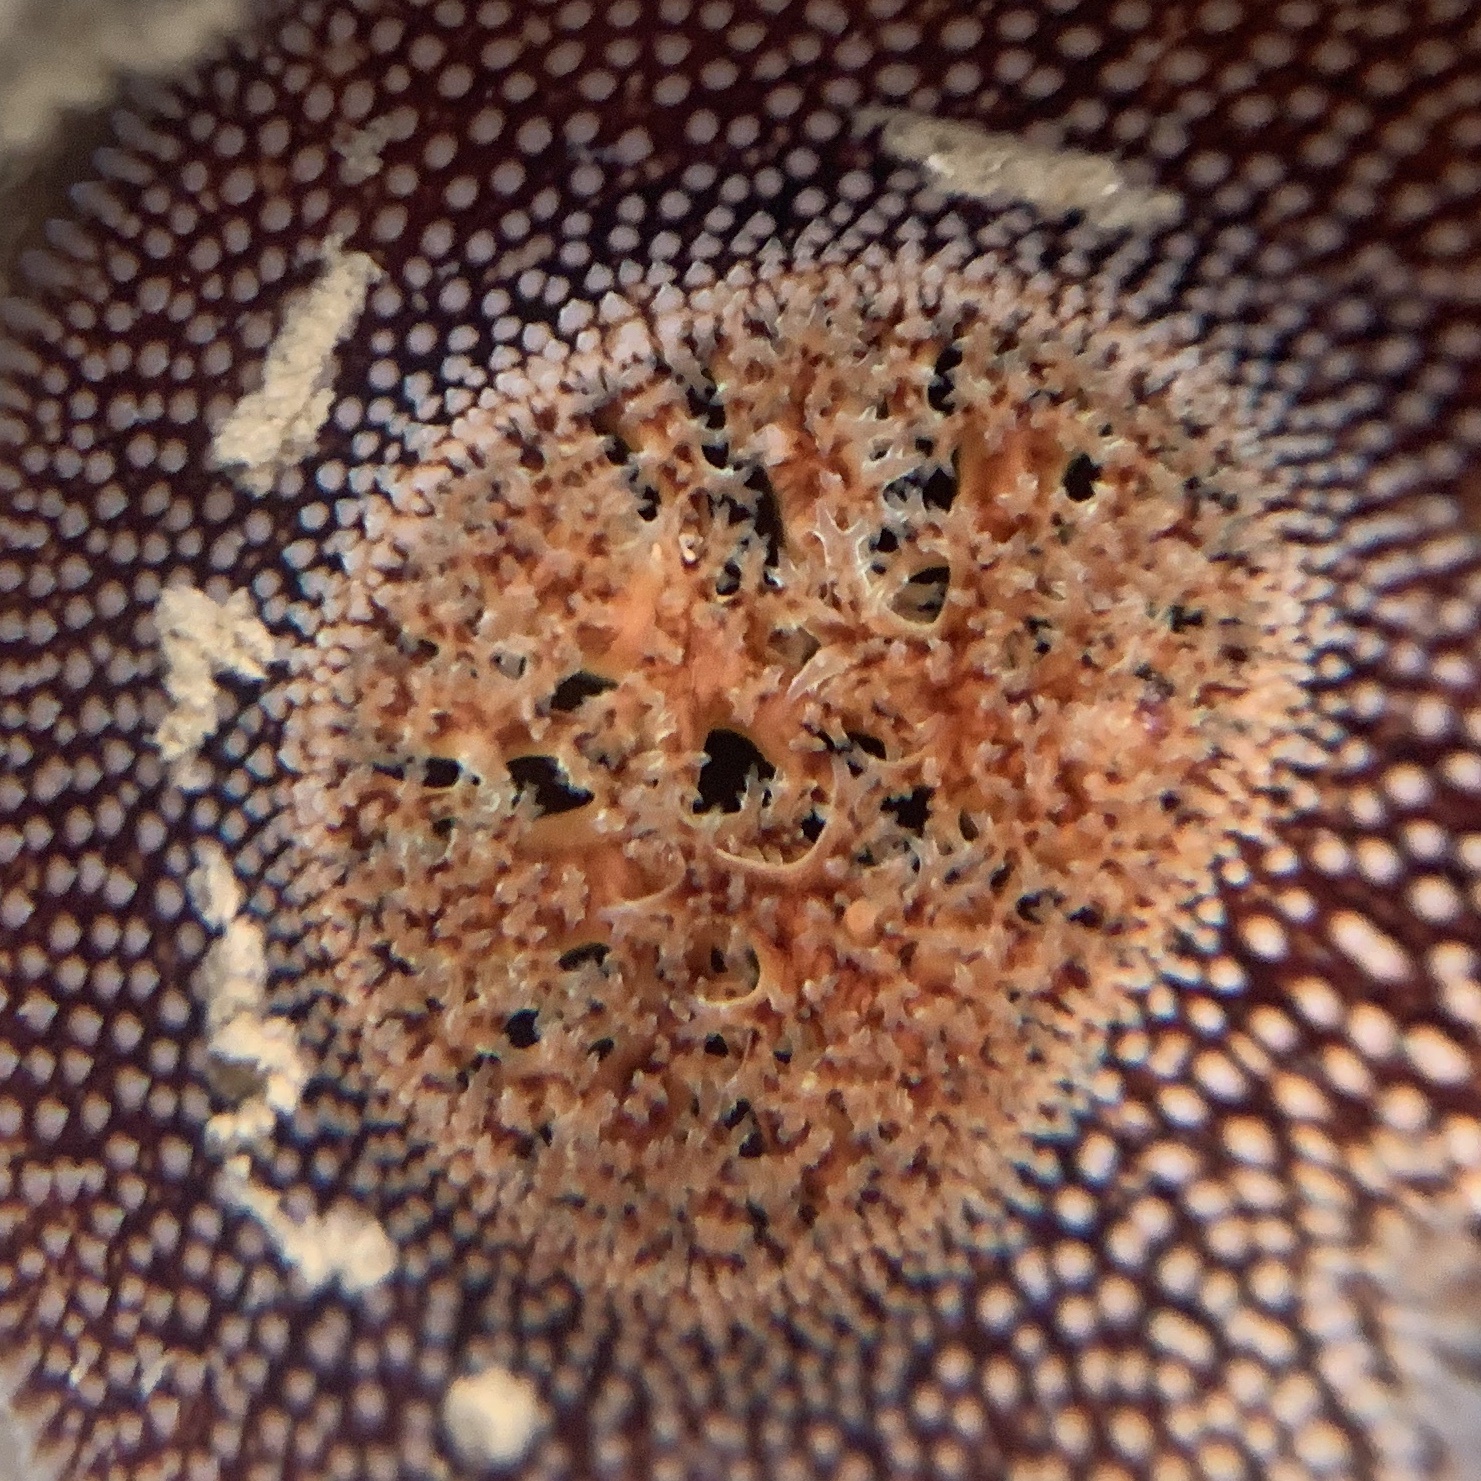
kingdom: Animalia
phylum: Mollusca
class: Bivalvia
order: Myida
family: Pholadidae
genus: Parapholas
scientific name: Parapholas californica
